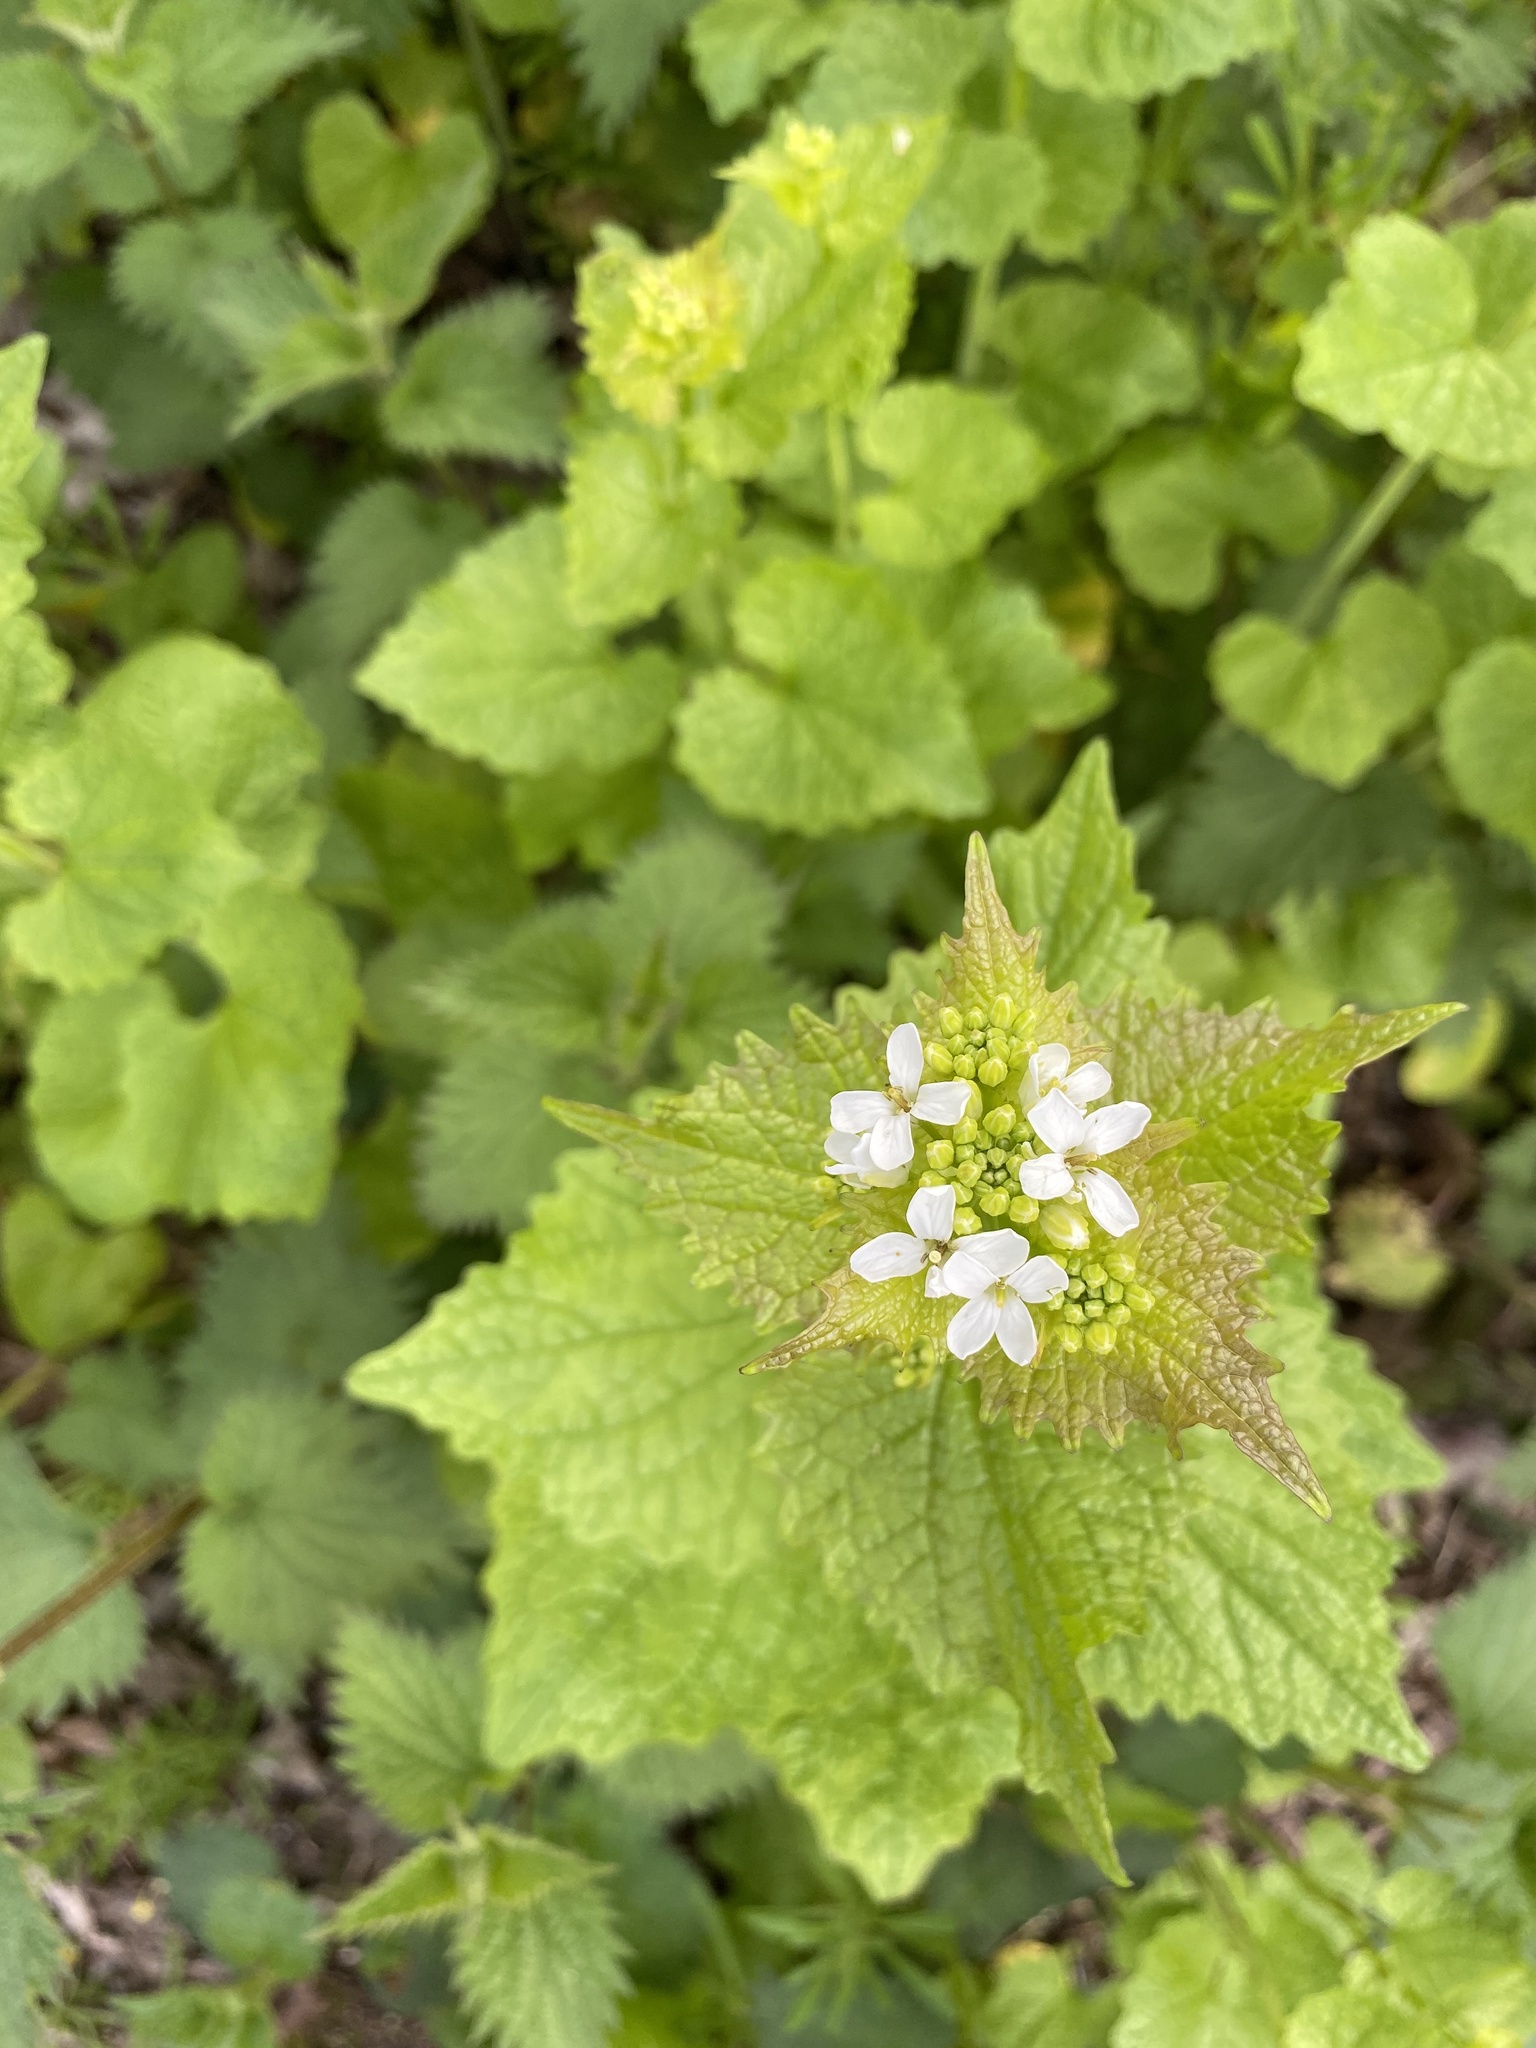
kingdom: Plantae
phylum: Tracheophyta
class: Magnoliopsida
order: Brassicales
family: Brassicaceae
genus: Alliaria
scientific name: Alliaria petiolata
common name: Garlic mustard
